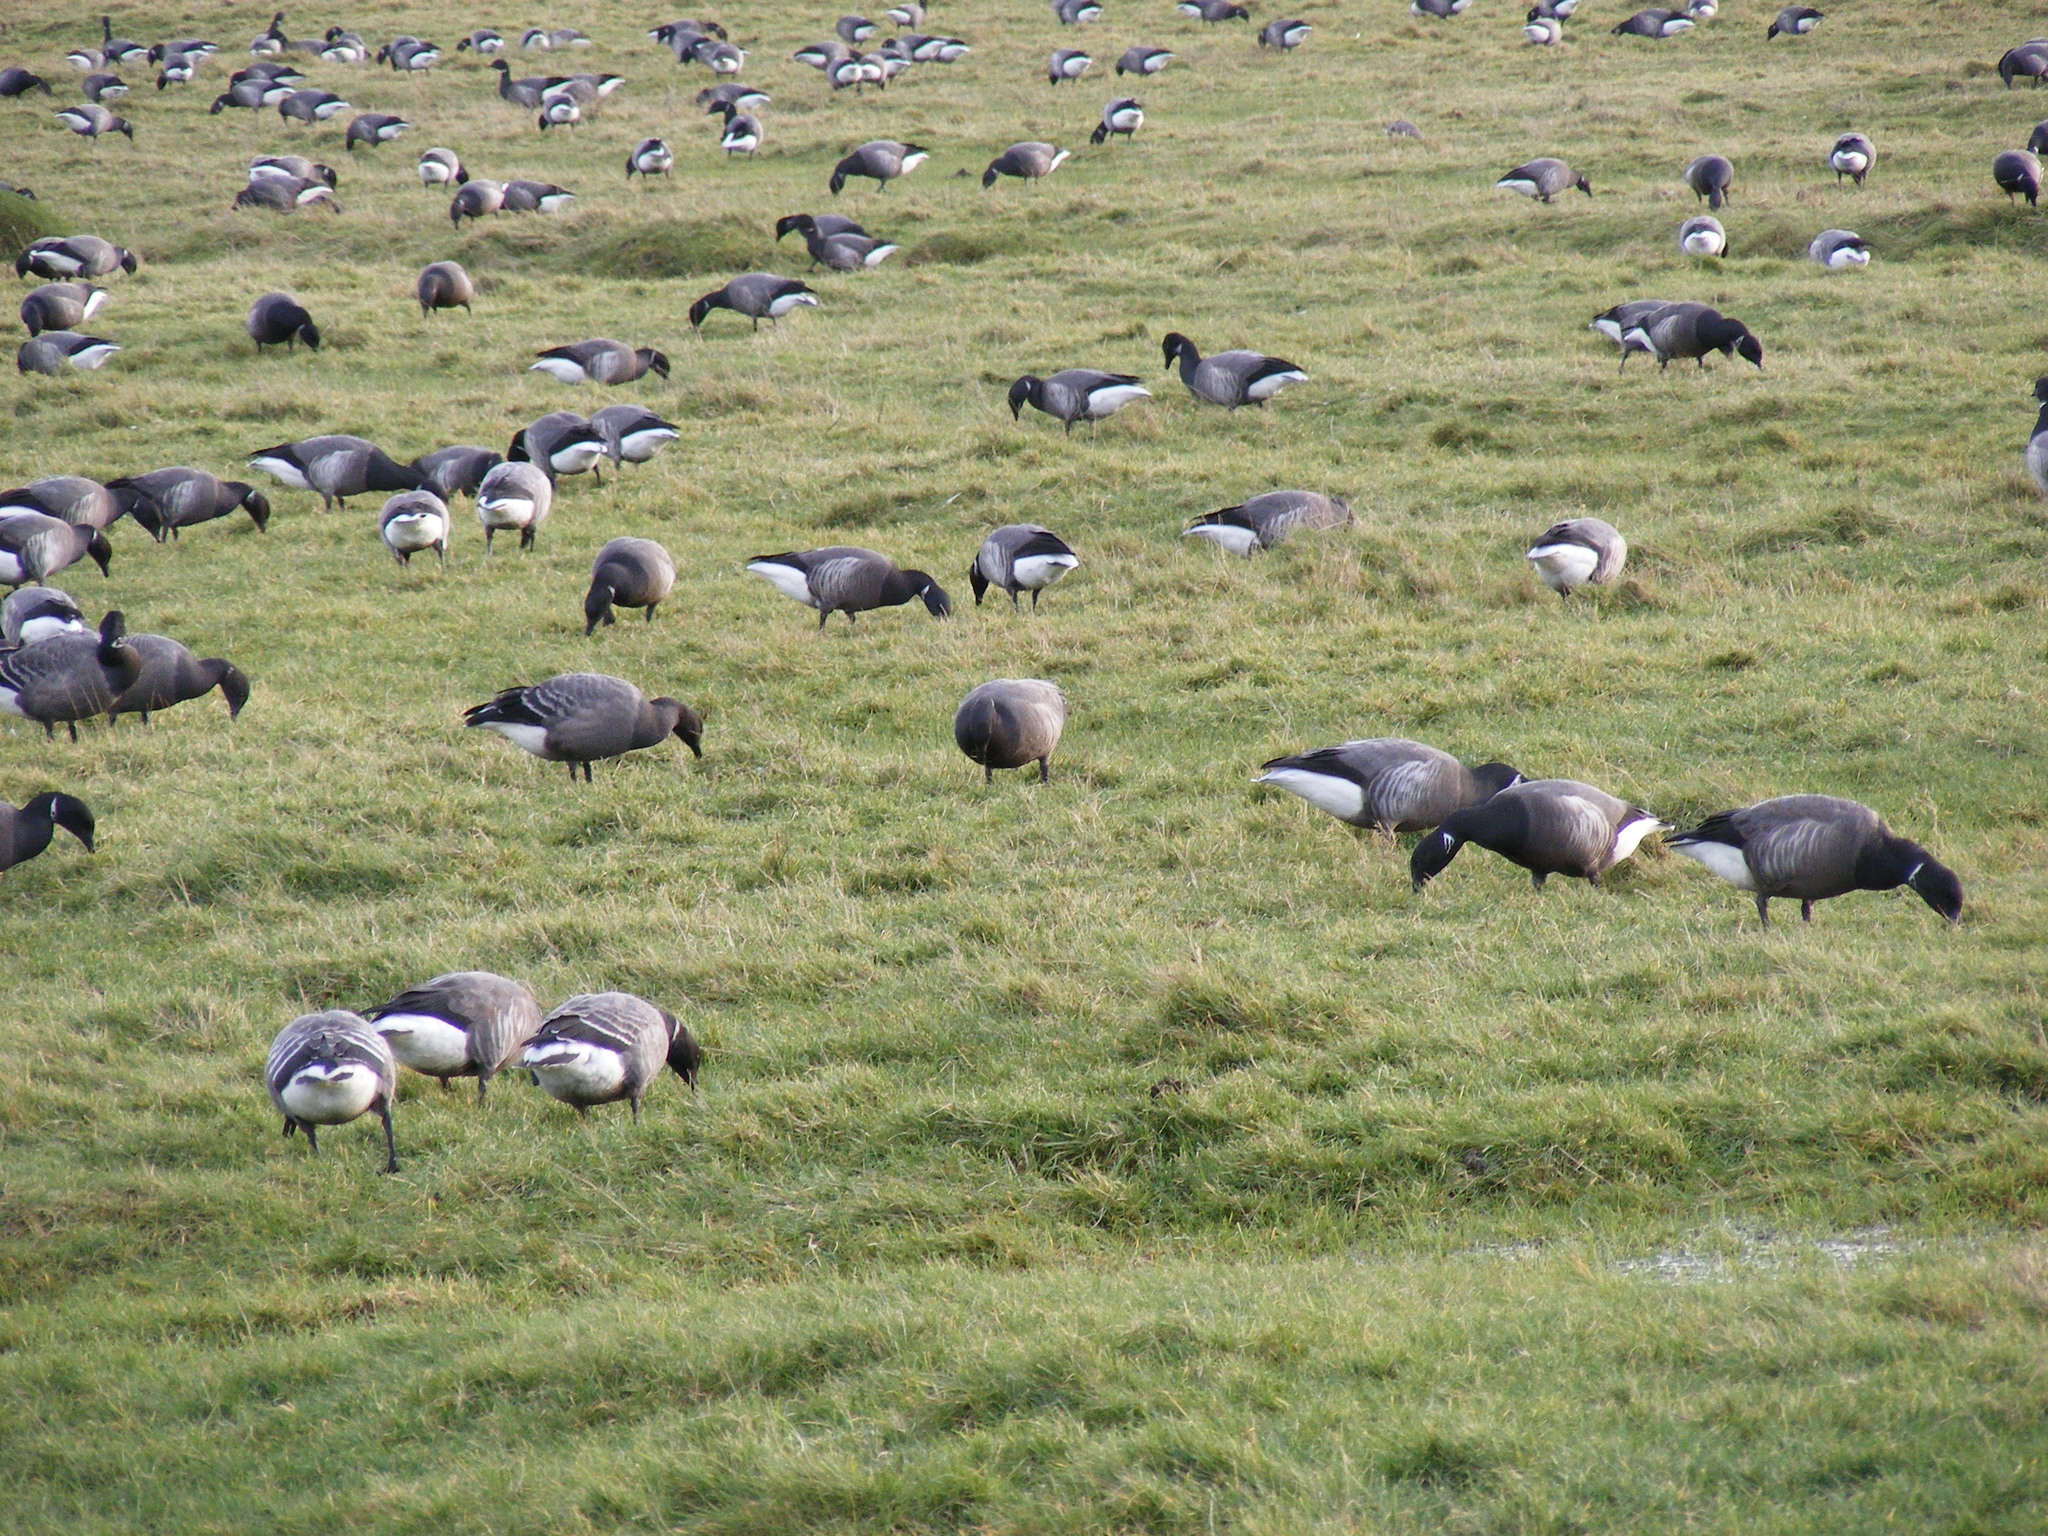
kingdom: Animalia
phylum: Chordata
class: Aves
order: Anseriformes
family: Anatidae
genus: Branta
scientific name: Branta bernicla
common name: Brant goose
